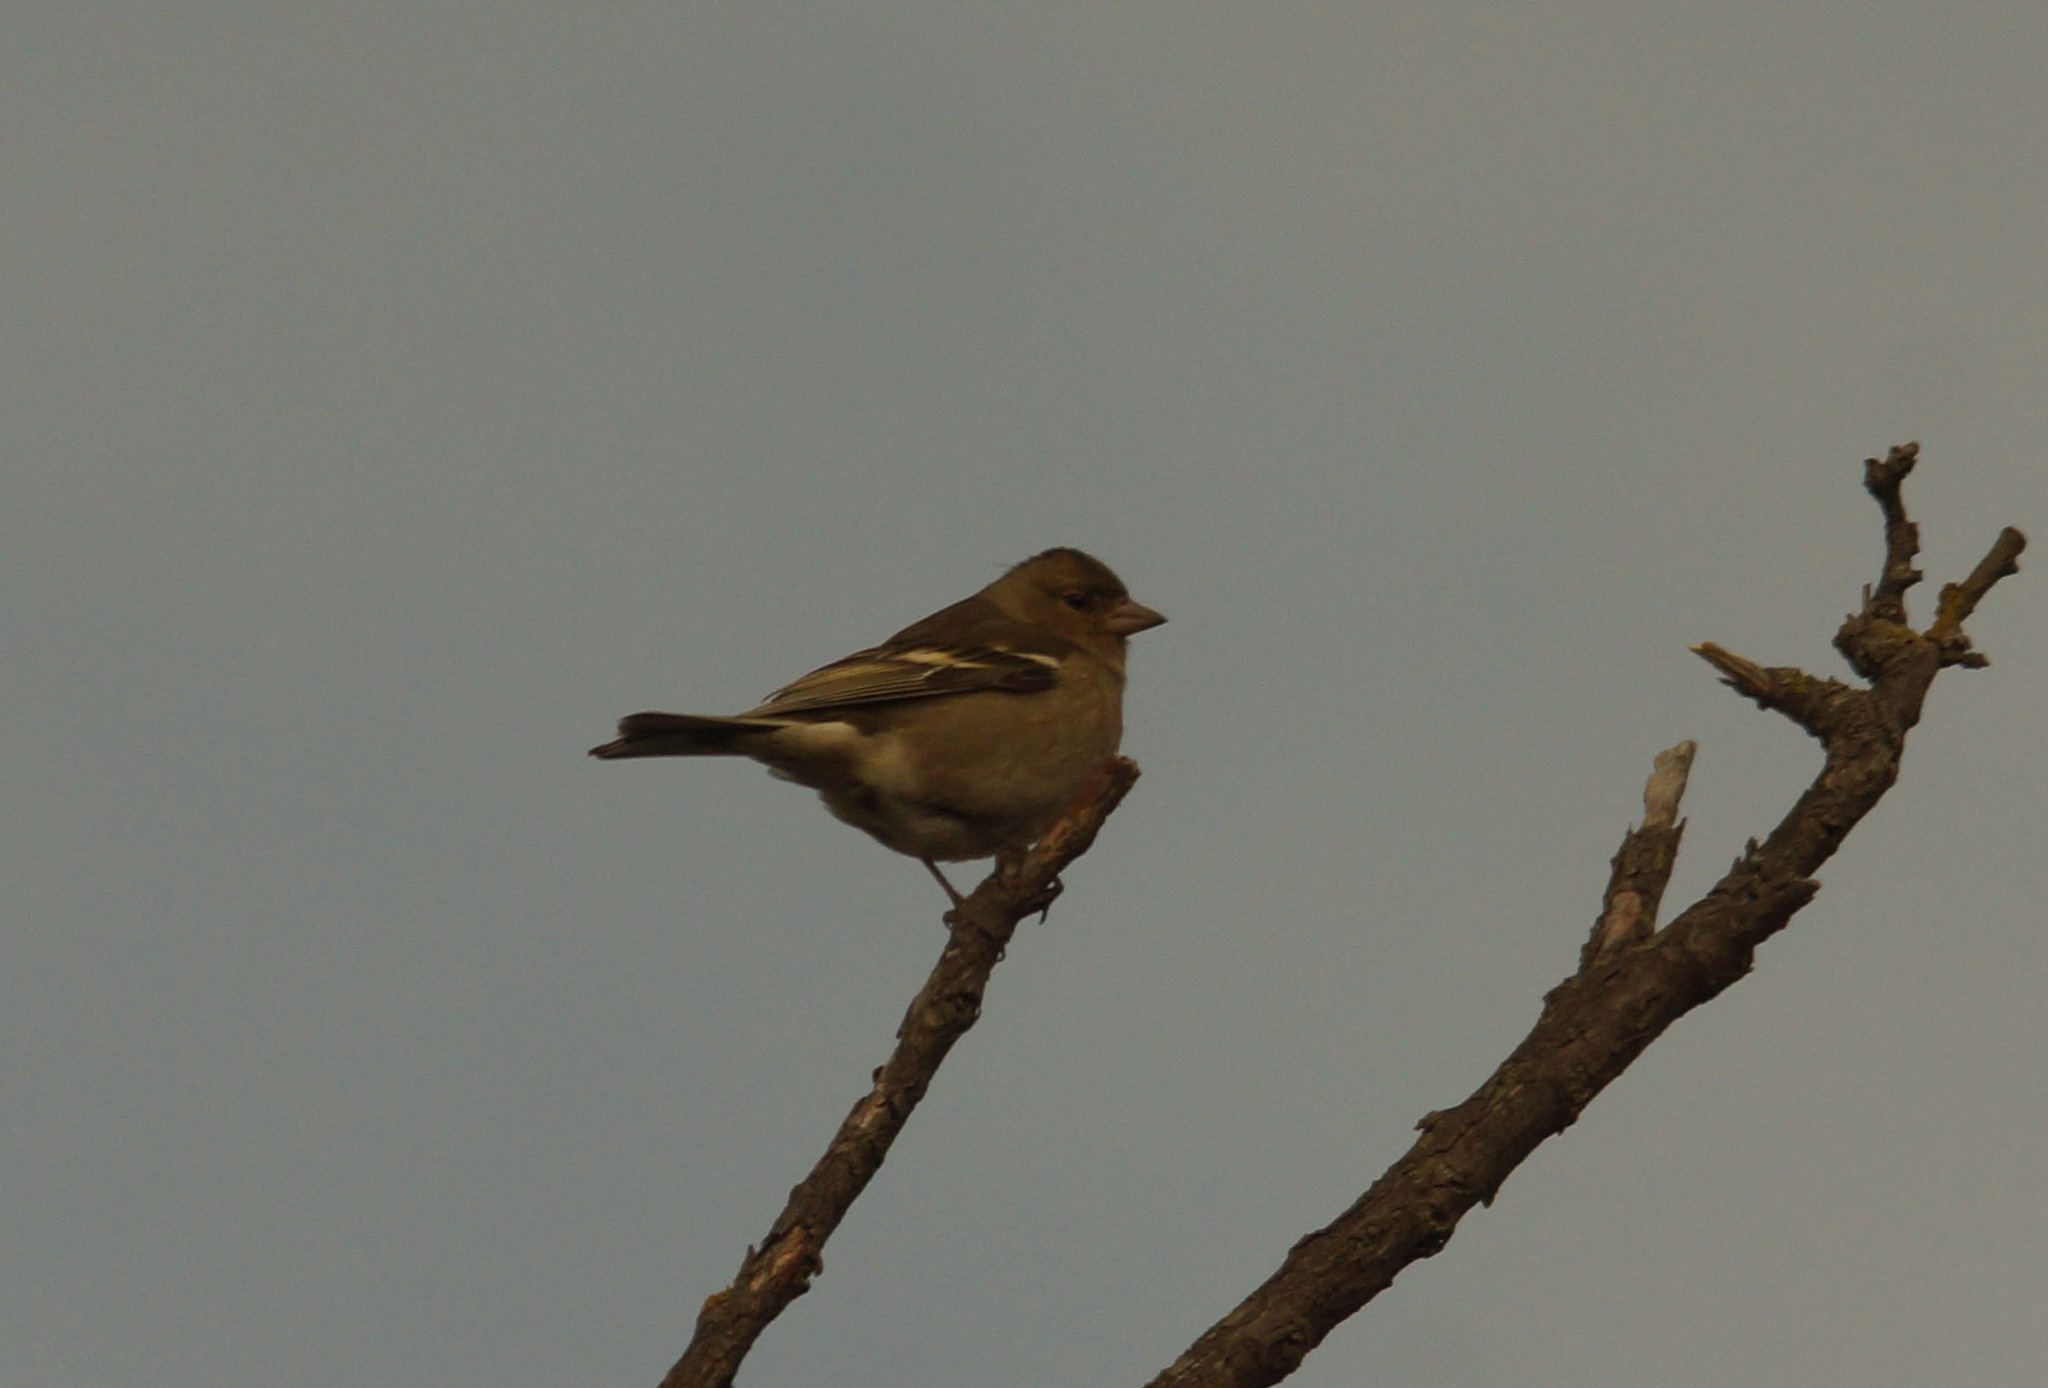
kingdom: Animalia
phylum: Chordata
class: Aves
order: Passeriformes
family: Fringillidae
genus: Fringilla
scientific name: Fringilla coelebs
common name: Common chaffinch
